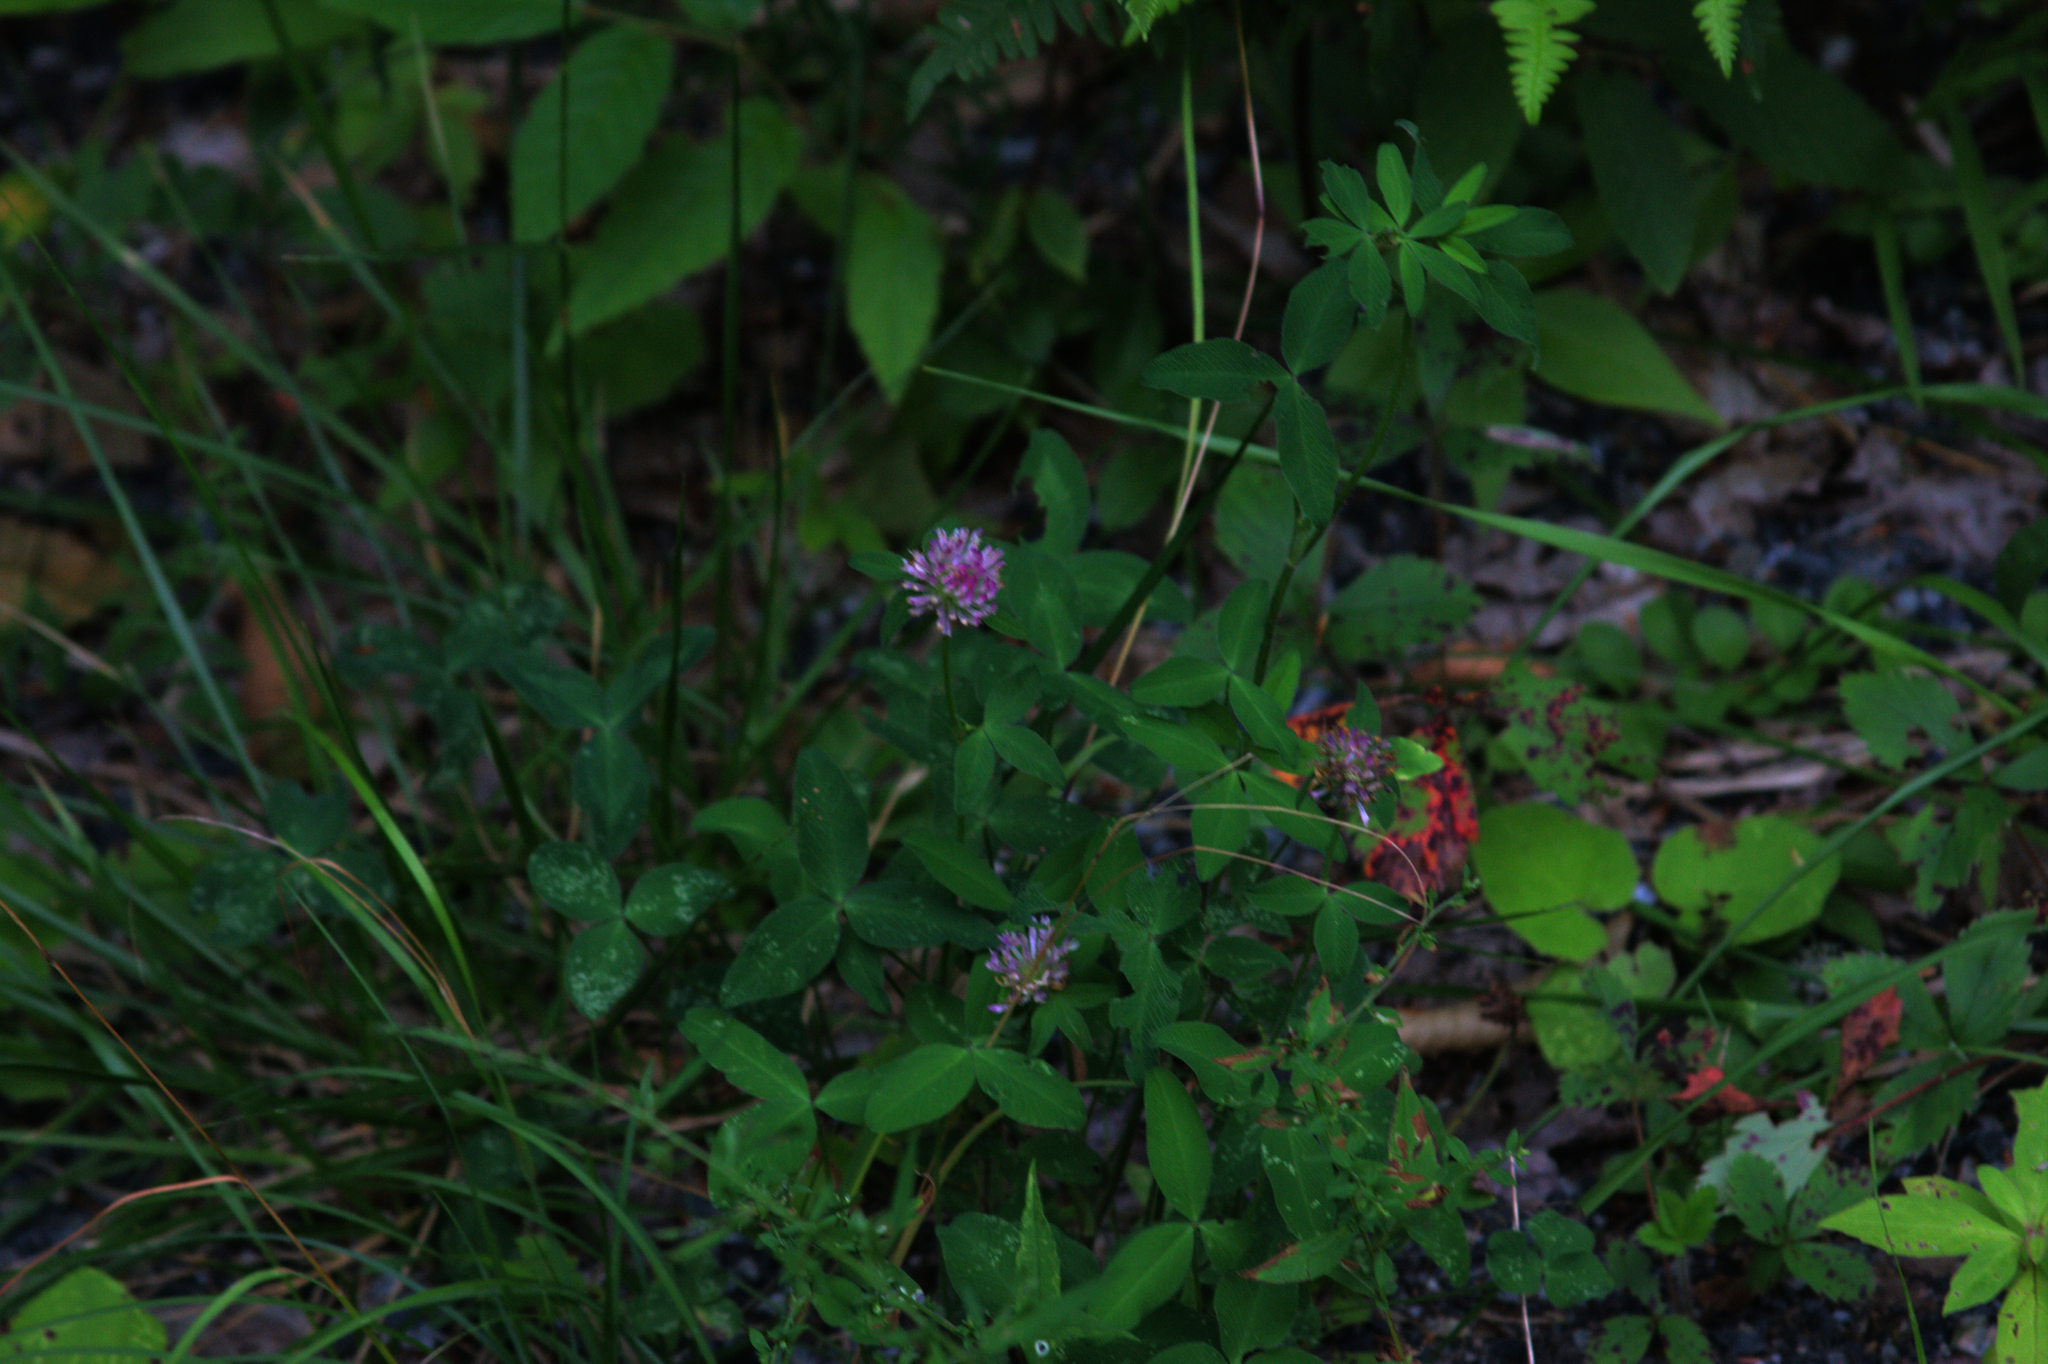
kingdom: Plantae
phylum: Tracheophyta
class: Magnoliopsida
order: Fabales
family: Fabaceae
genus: Trifolium
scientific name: Trifolium pratense
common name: Red clover
